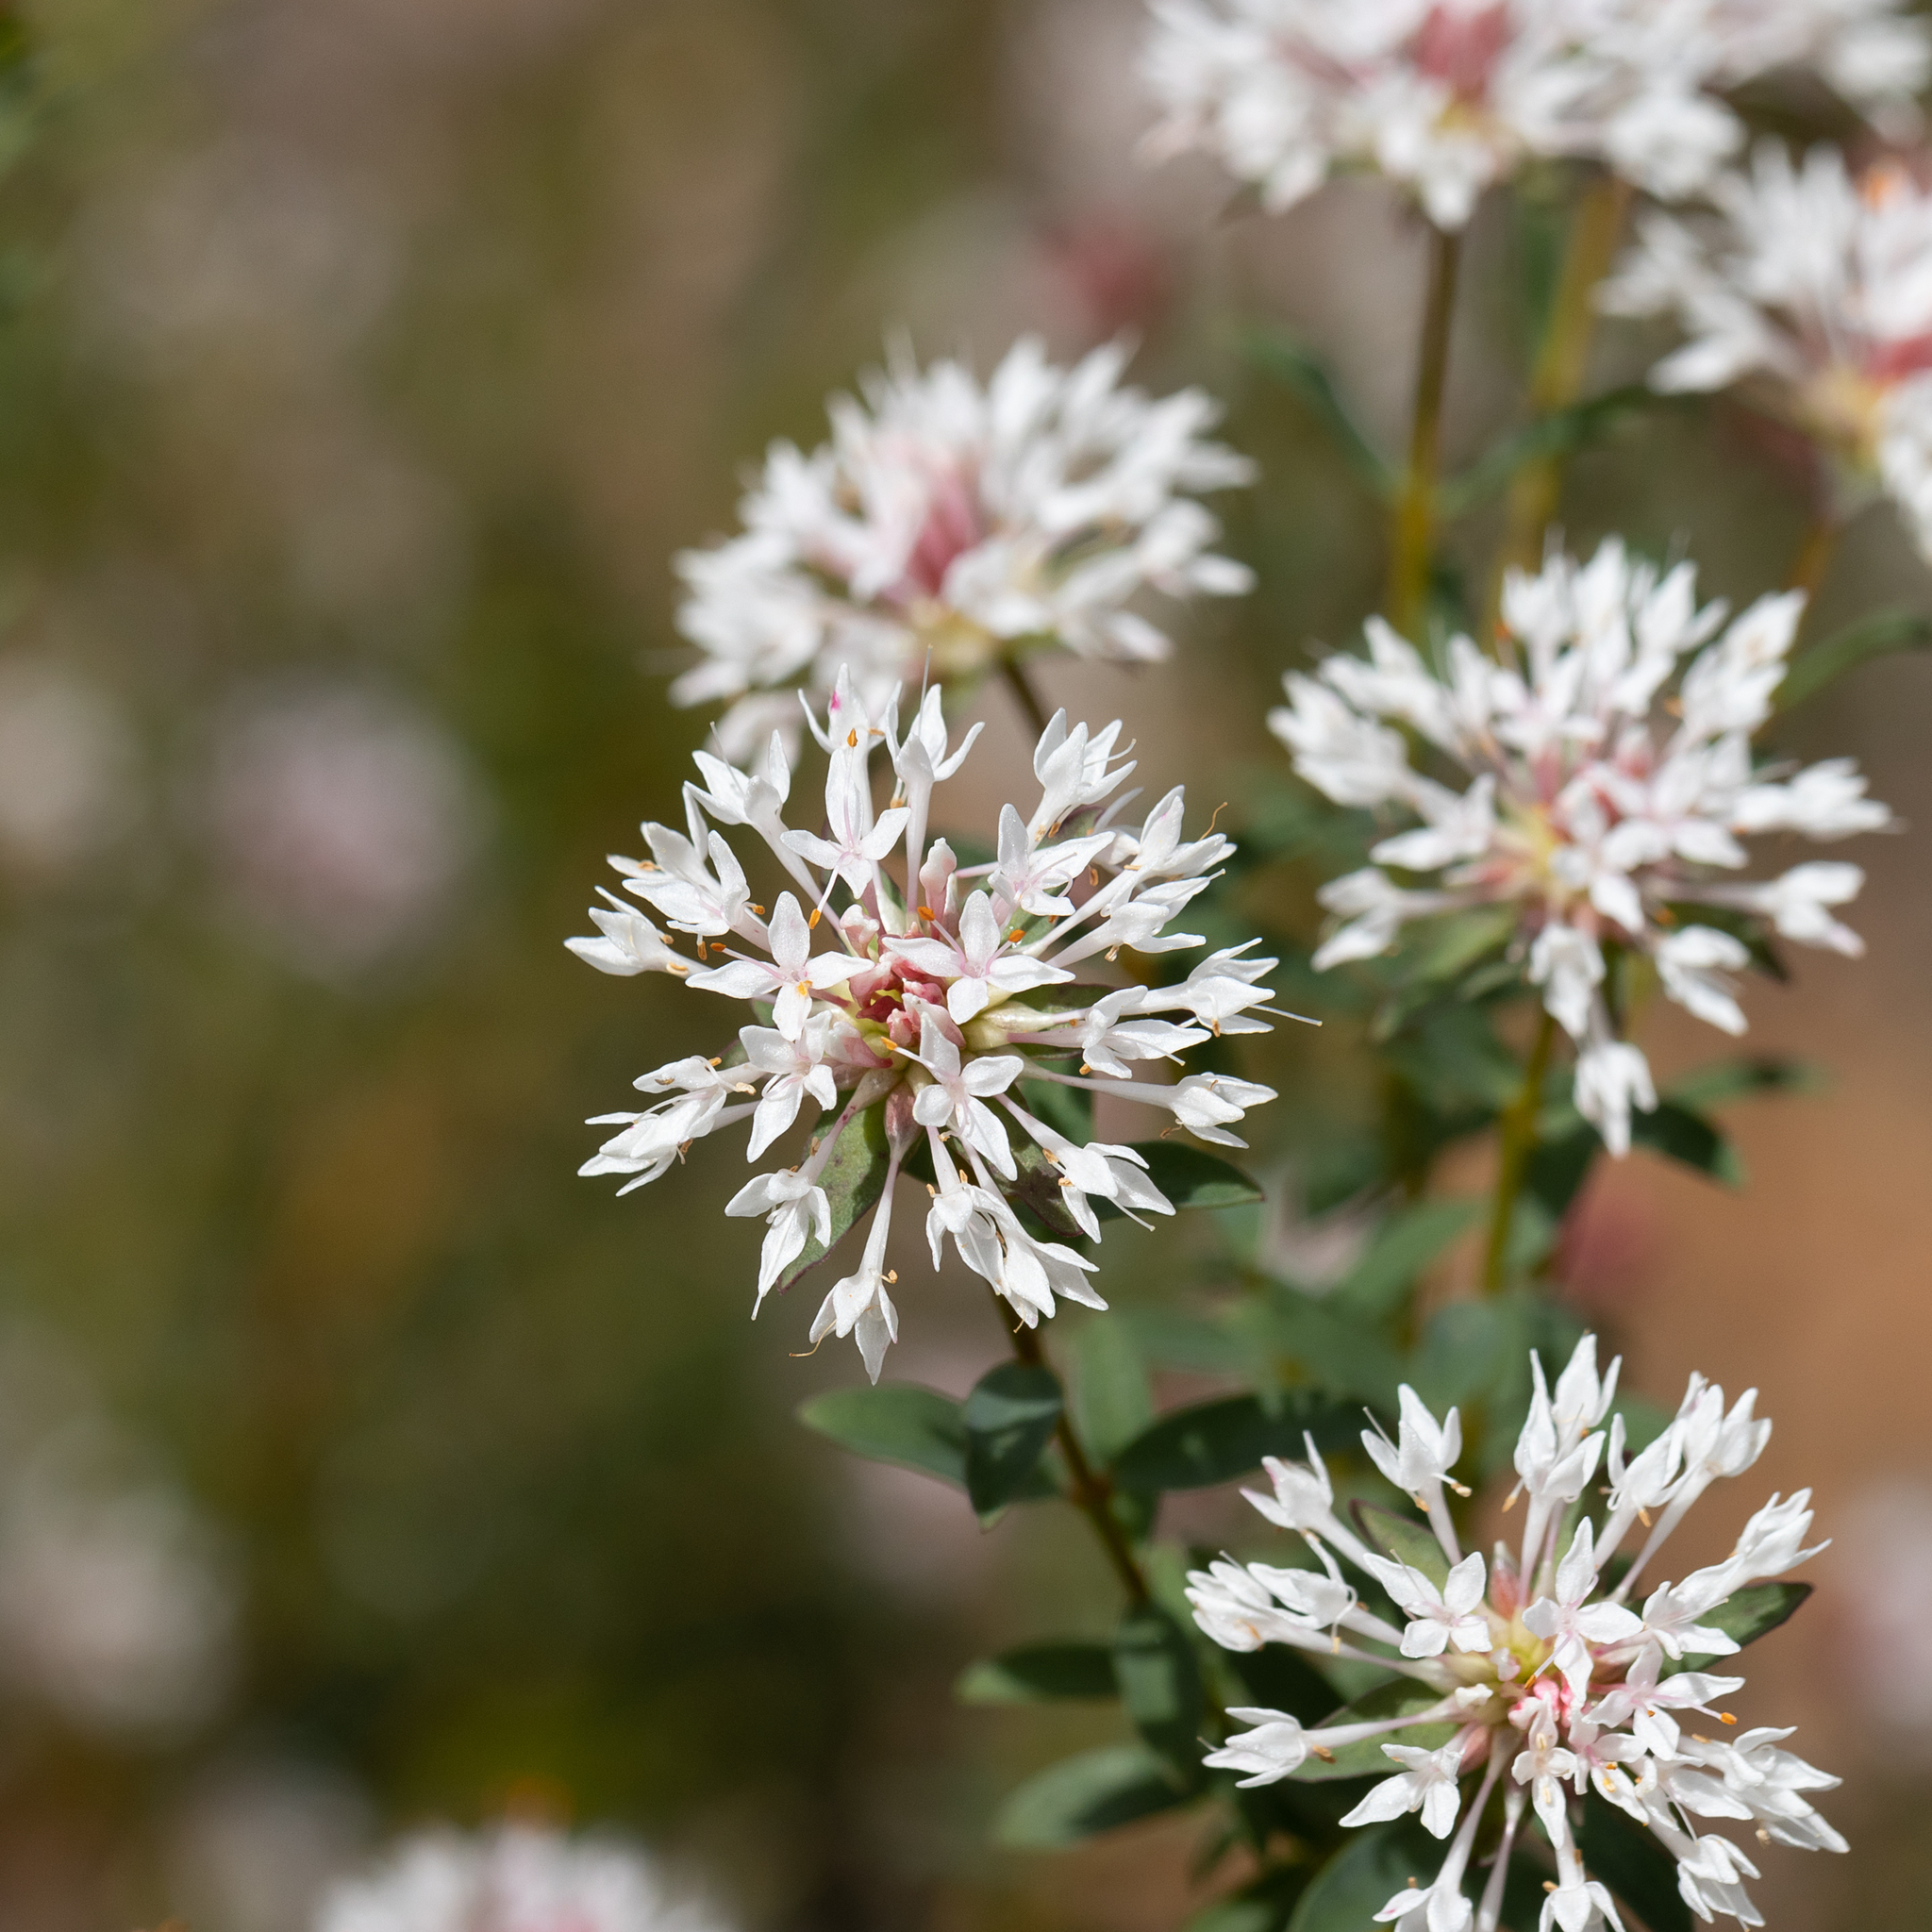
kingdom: Plantae
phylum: Tracheophyta
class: Magnoliopsida
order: Malvales
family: Thymelaeaceae
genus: Pimelea
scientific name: Pimelea sylvestris
